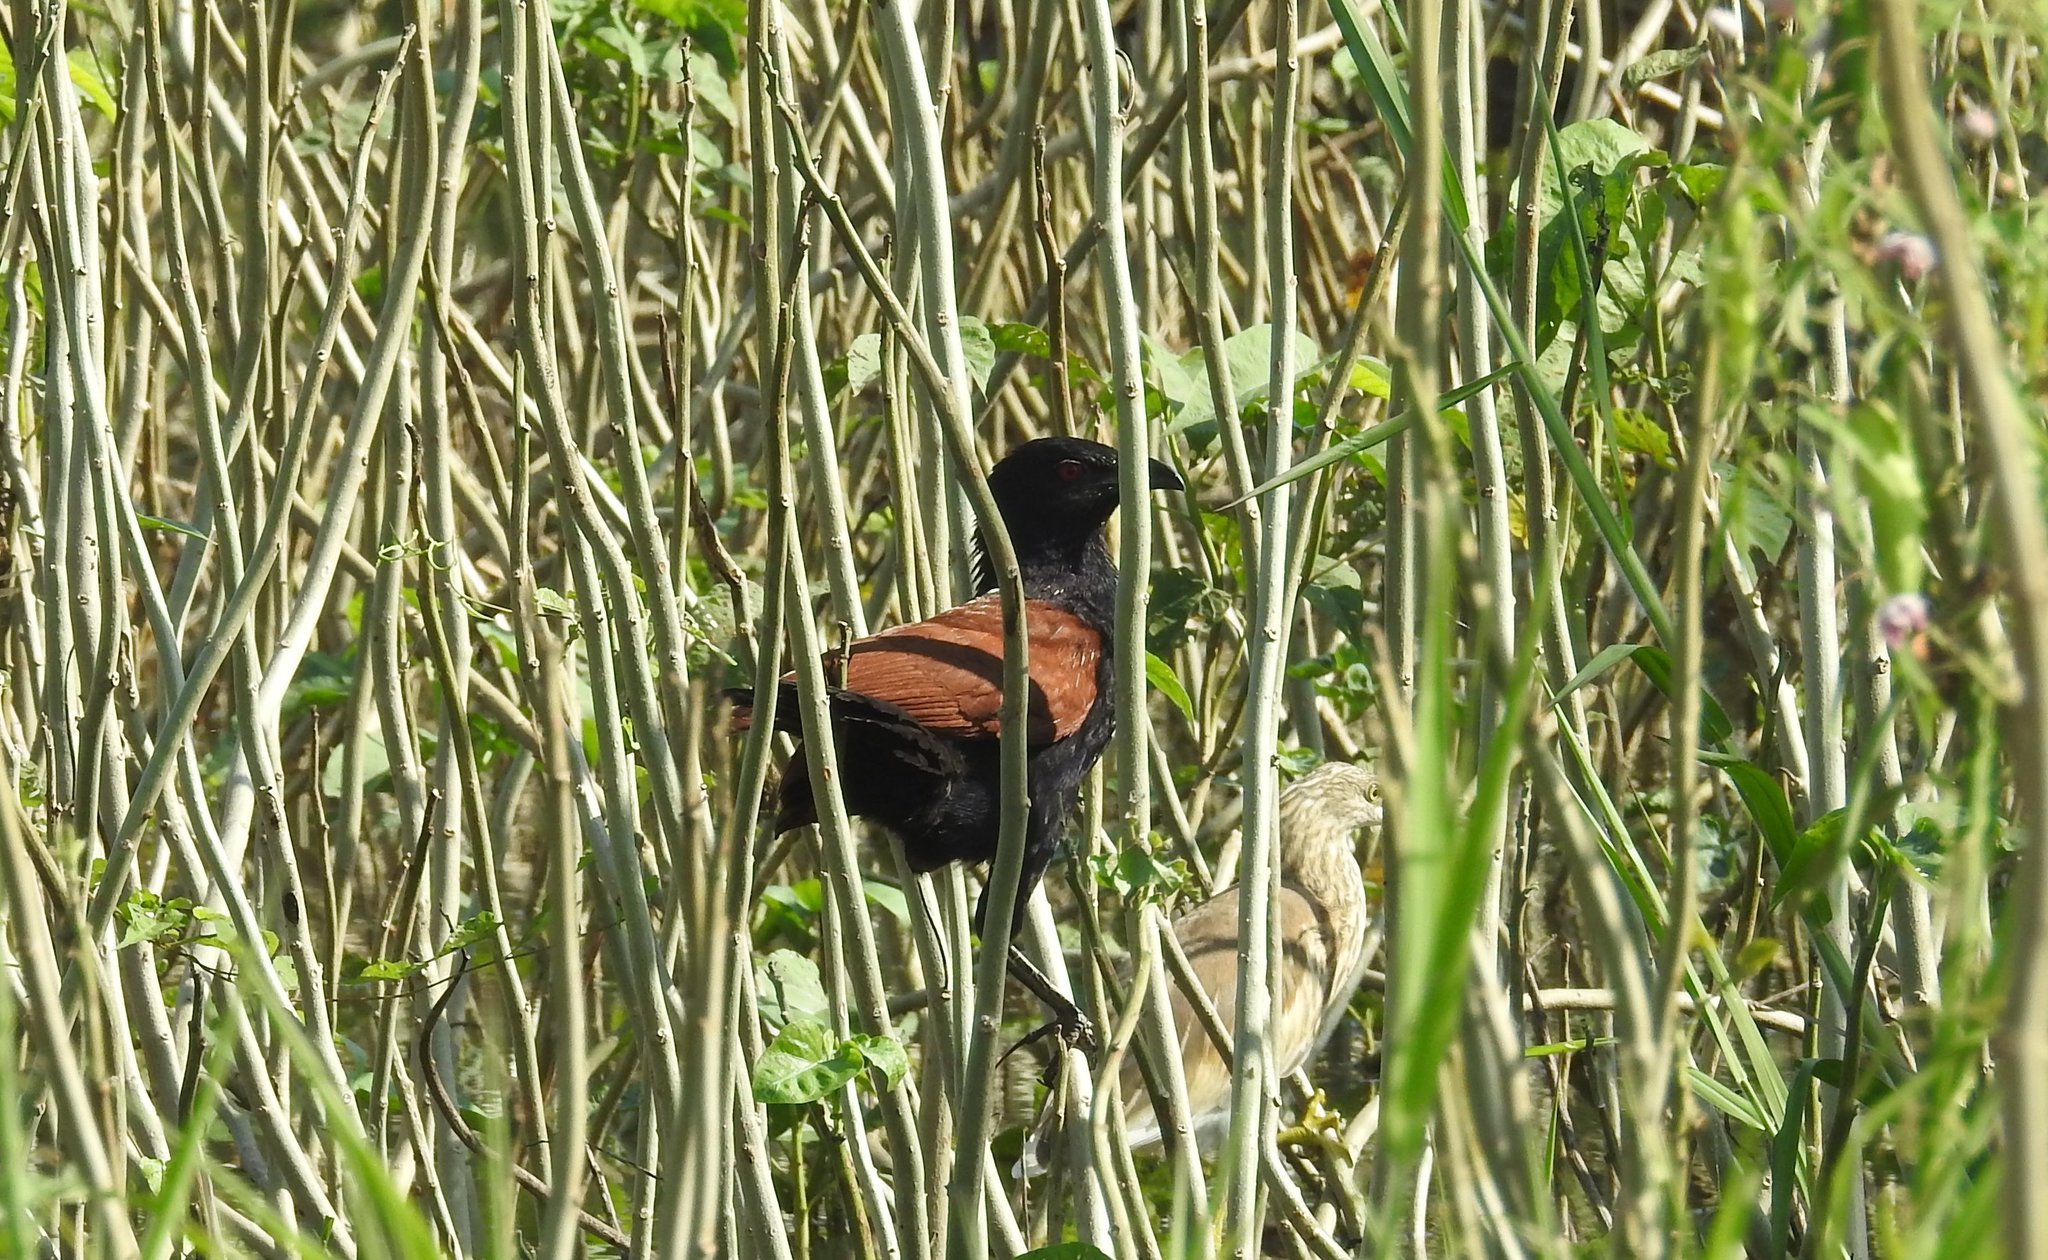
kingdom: Animalia
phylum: Chordata
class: Aves
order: Cuculiformes
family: Cuculidae
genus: Centropus
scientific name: Centropus sinensis
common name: Greater coucal
